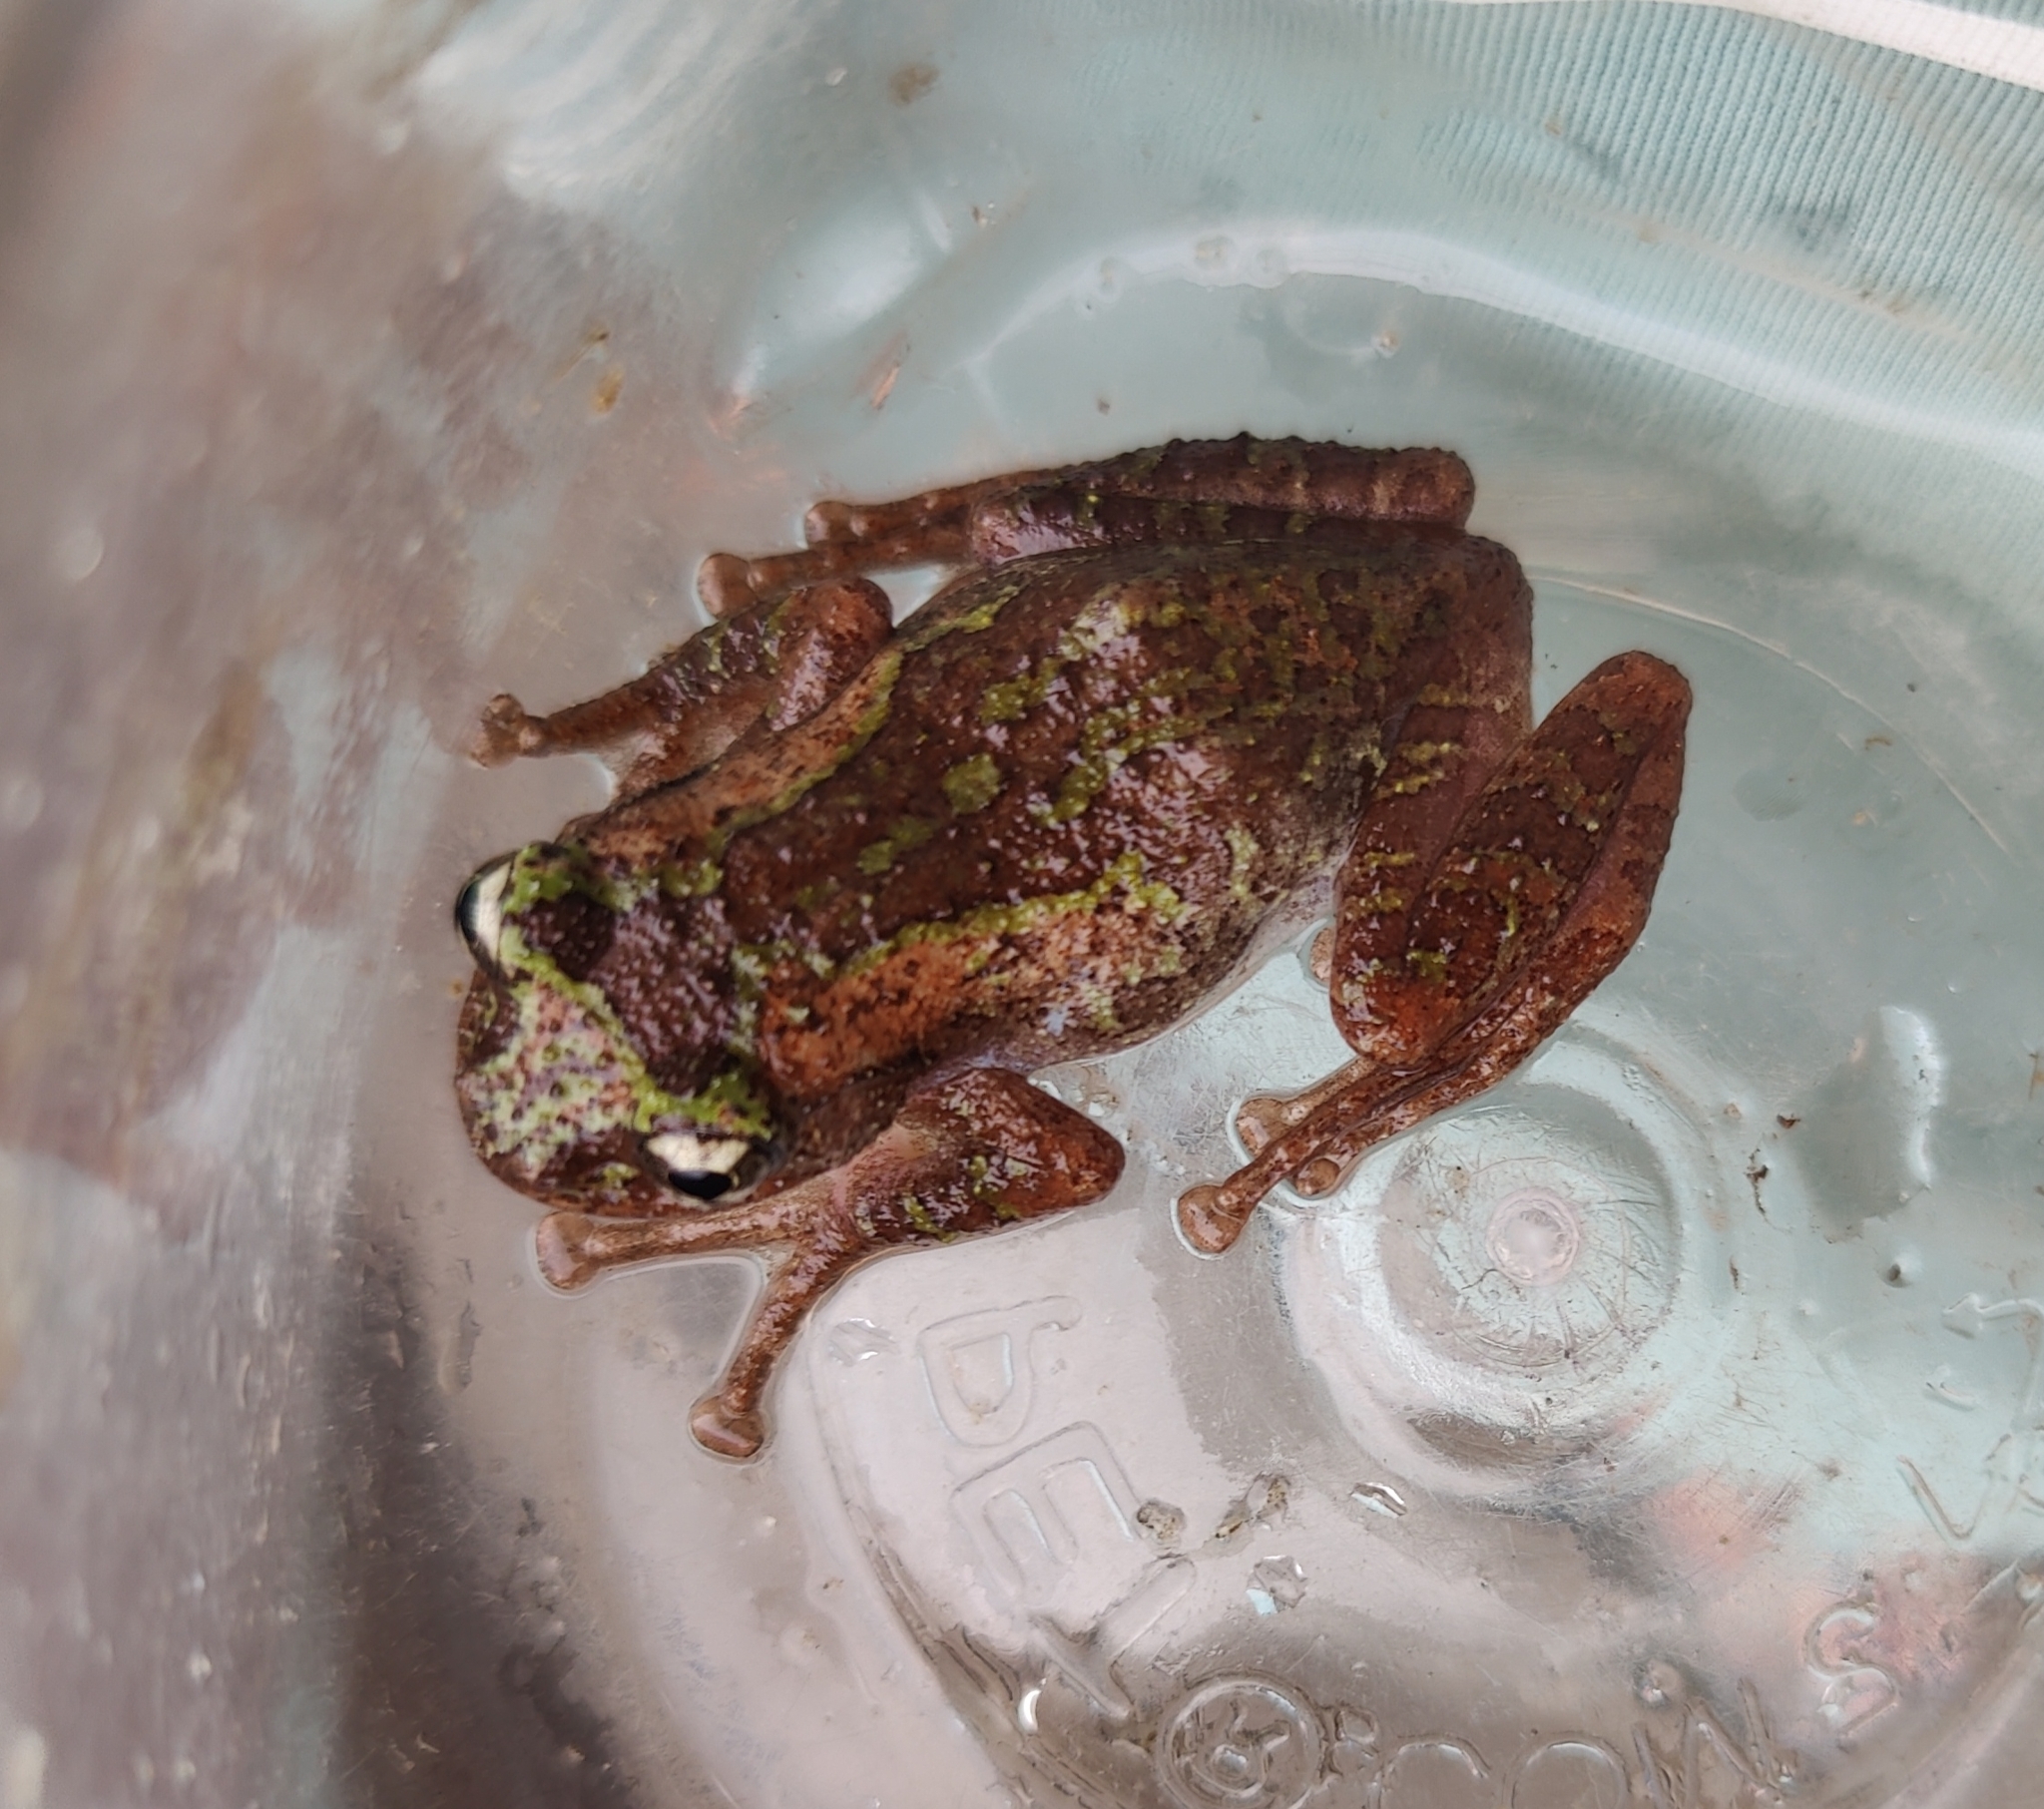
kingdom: Animalia
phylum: Chordata
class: Amphibia
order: Anura
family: Rhacophoridae
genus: Nasutixalus
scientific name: Nasutixalus medogensis
